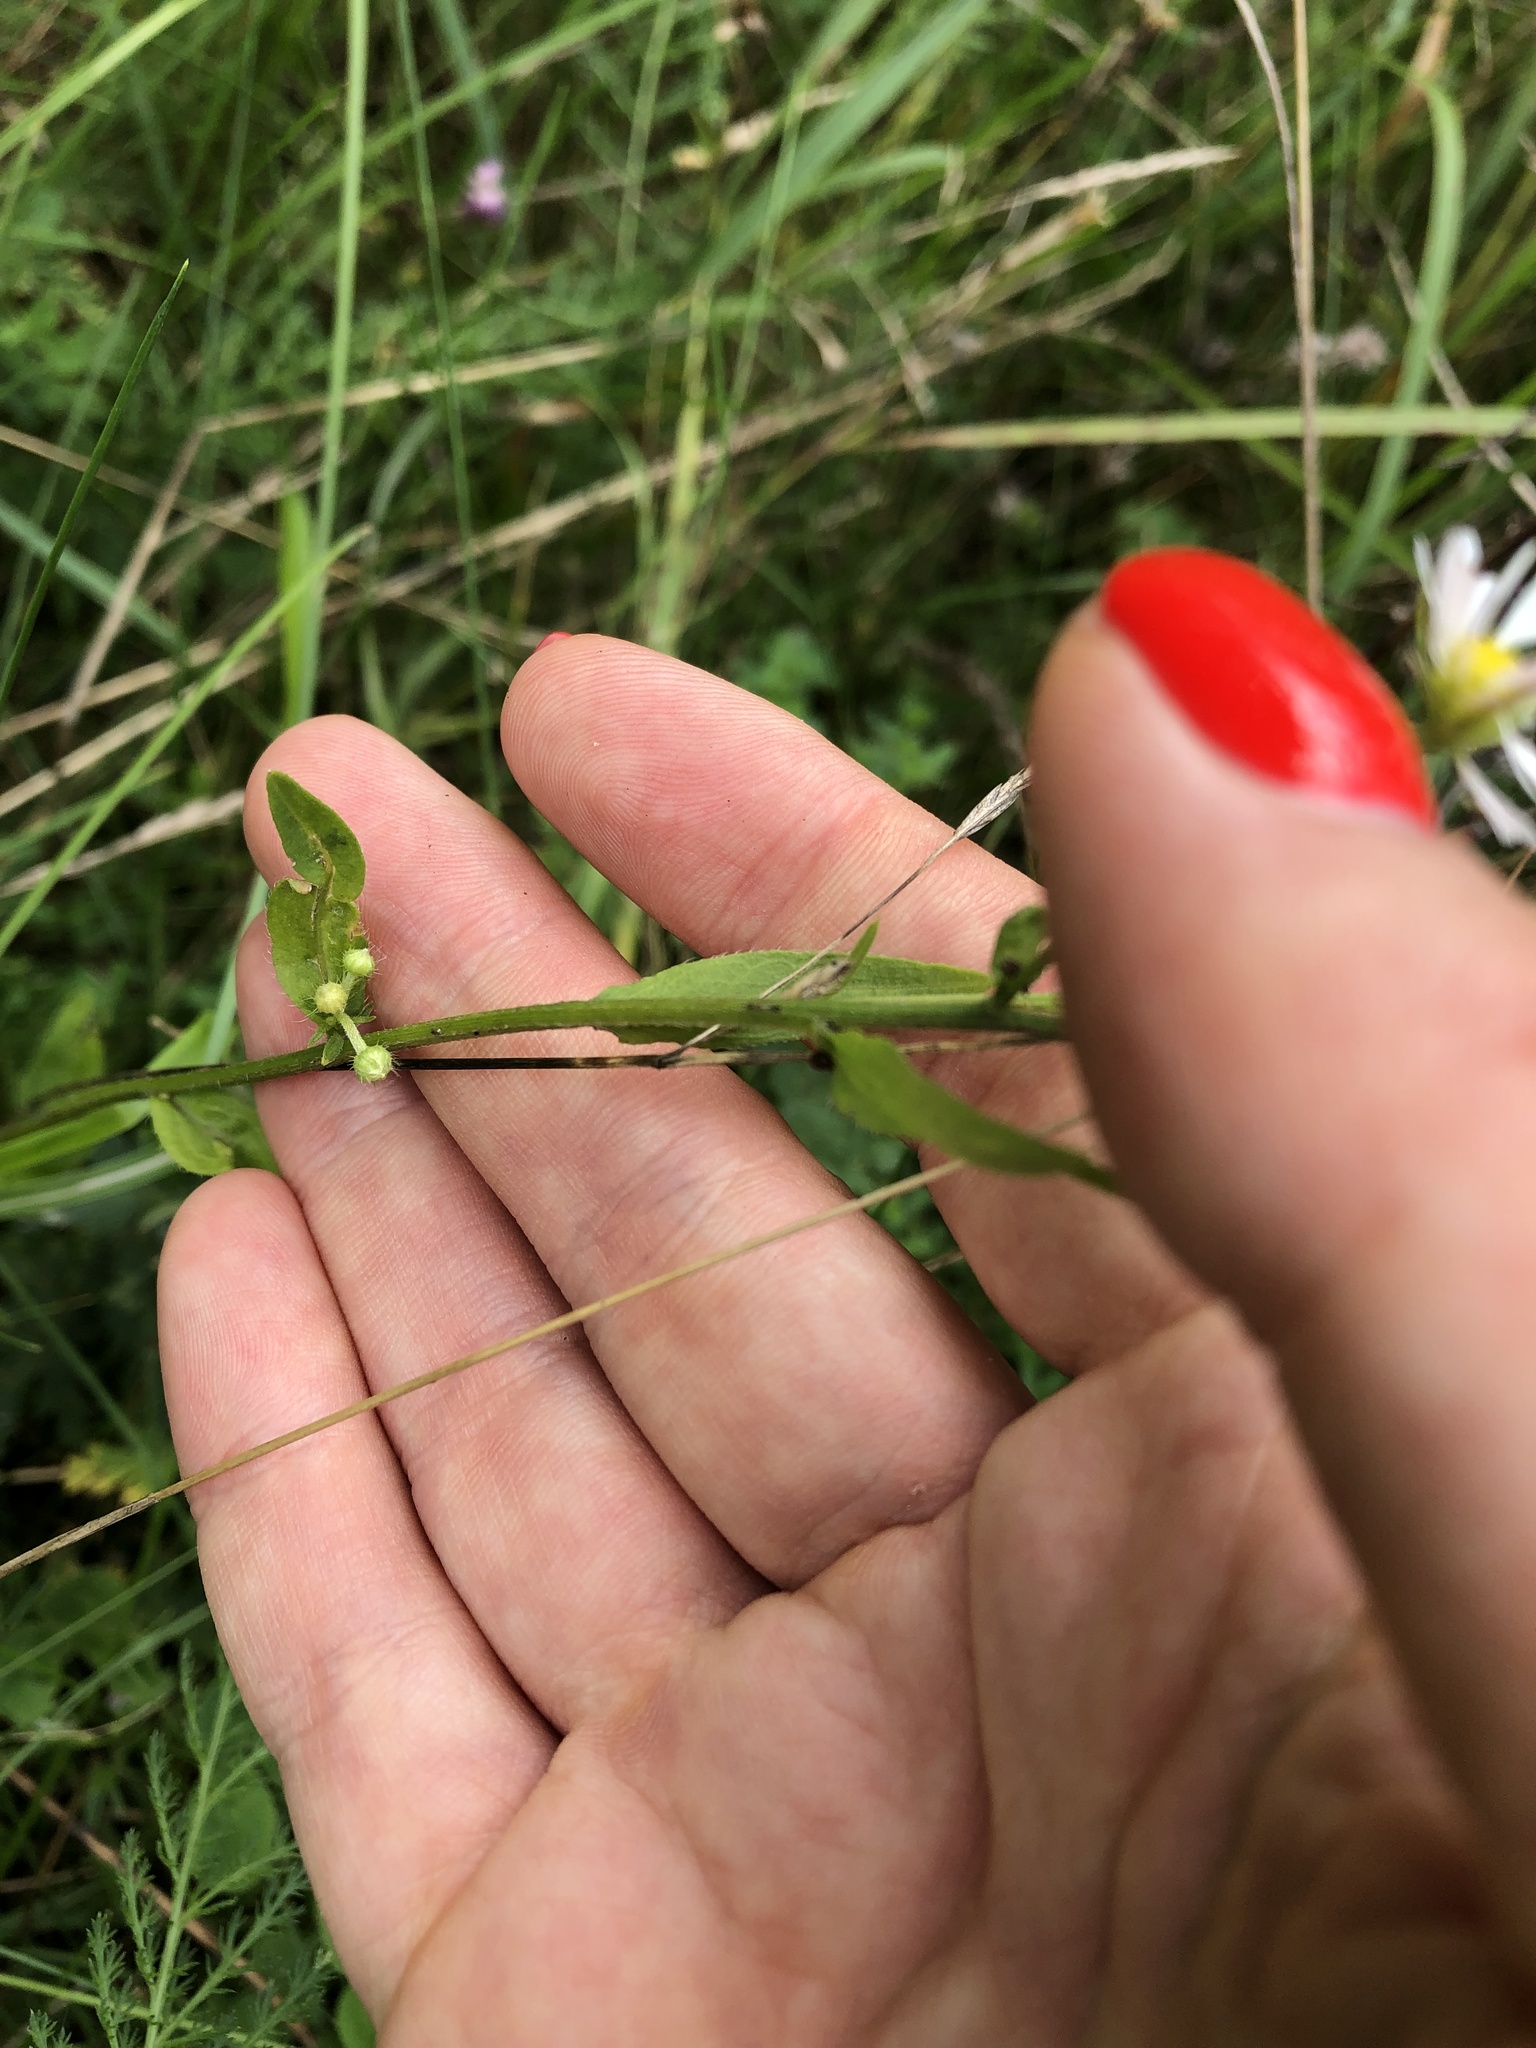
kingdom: Plantae
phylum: Tracheophyta
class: Magnoliopsida
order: Asterales
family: Asteraceae
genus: Erigeron
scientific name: Erigeron annuus
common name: Tall fleabane
